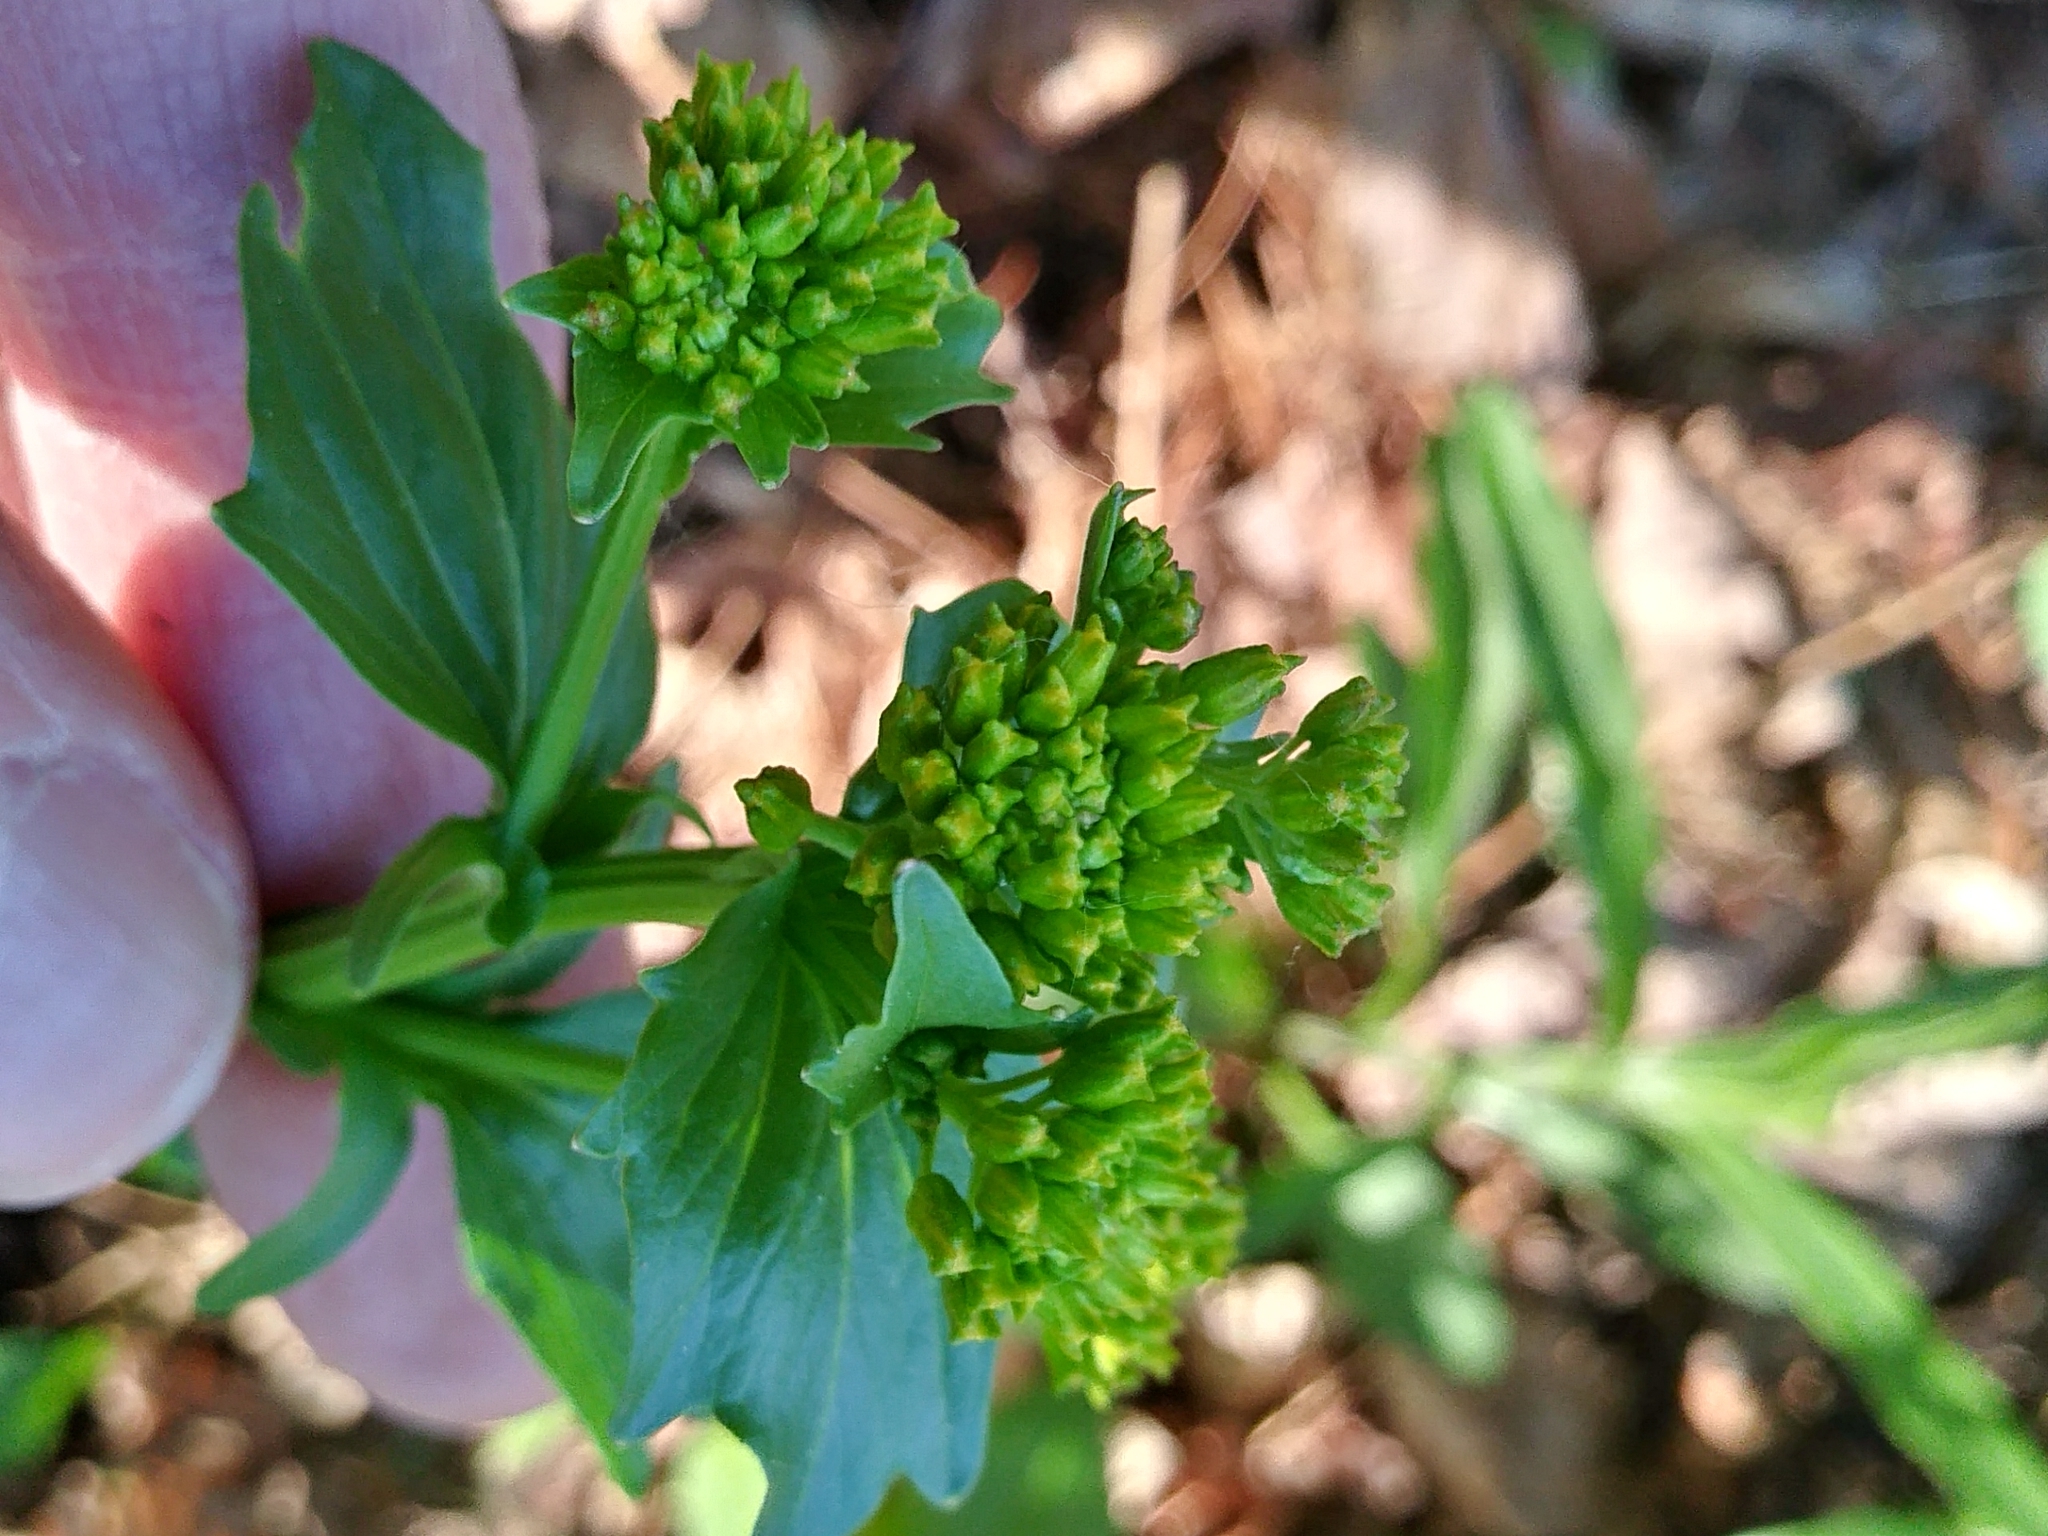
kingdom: Plantae
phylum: Tracheophyta
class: Magnoliopsida
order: Brassicales
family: Brassicaceae
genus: Barbarea
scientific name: Barbarea vulgaris
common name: Cressy-greens
